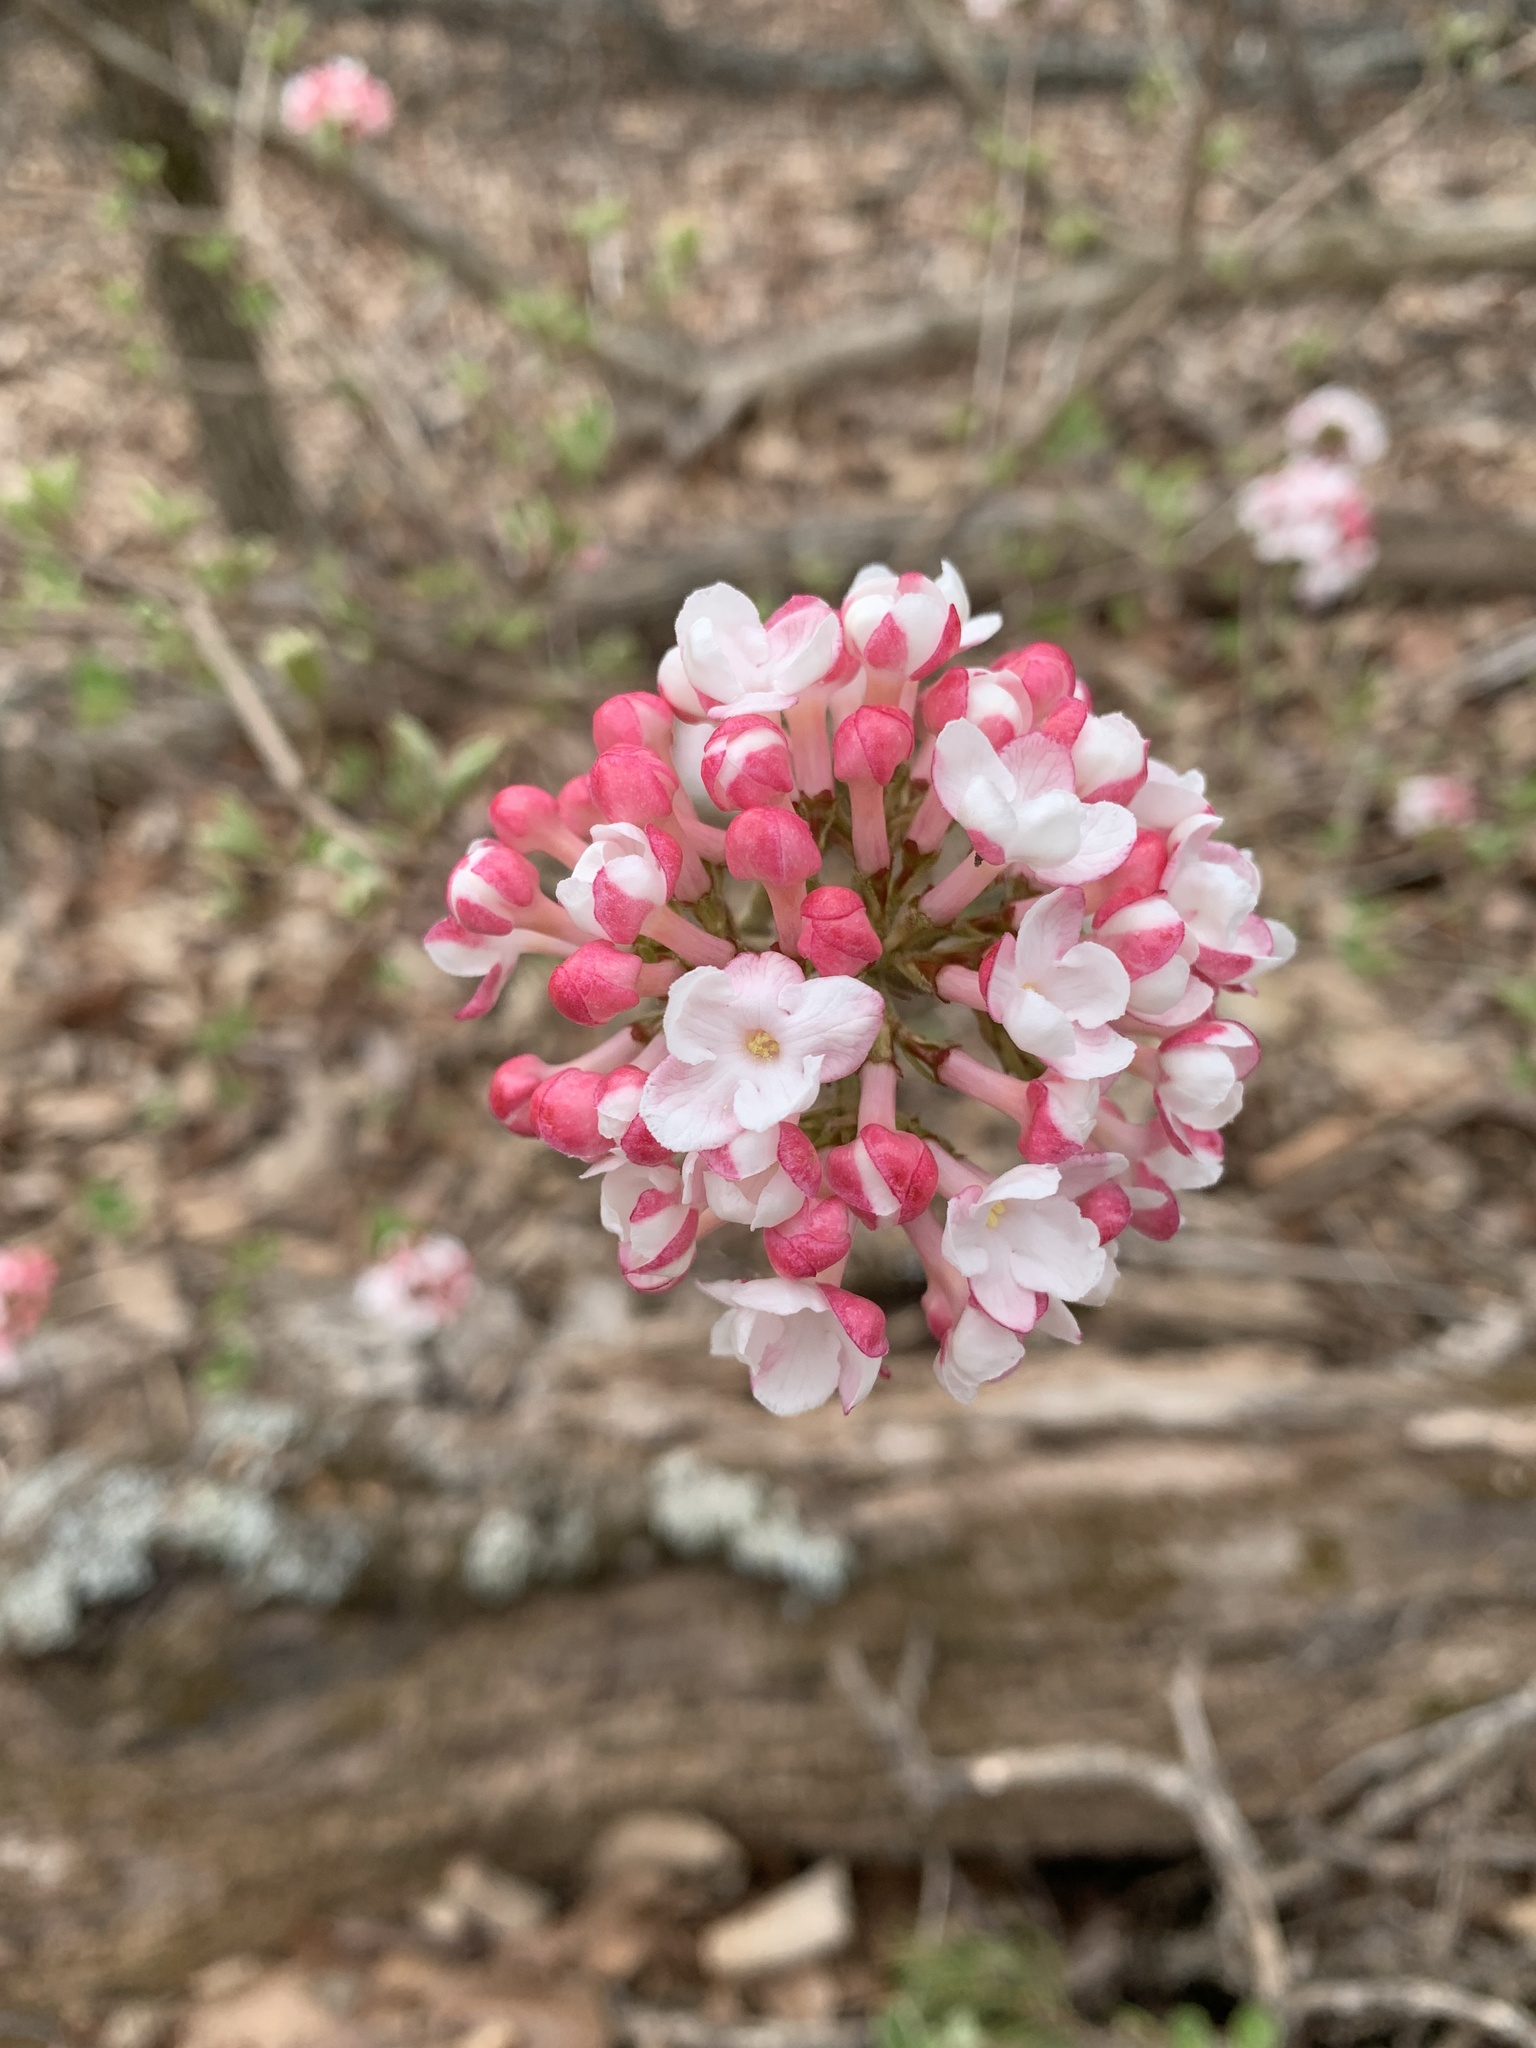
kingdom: Plantae
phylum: Tracheophyta
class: Magnoliopsida
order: Dipsacales
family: Viburnaceae
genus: Viburnum
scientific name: Viburnum carlesii
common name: Koreanspice viburnum
